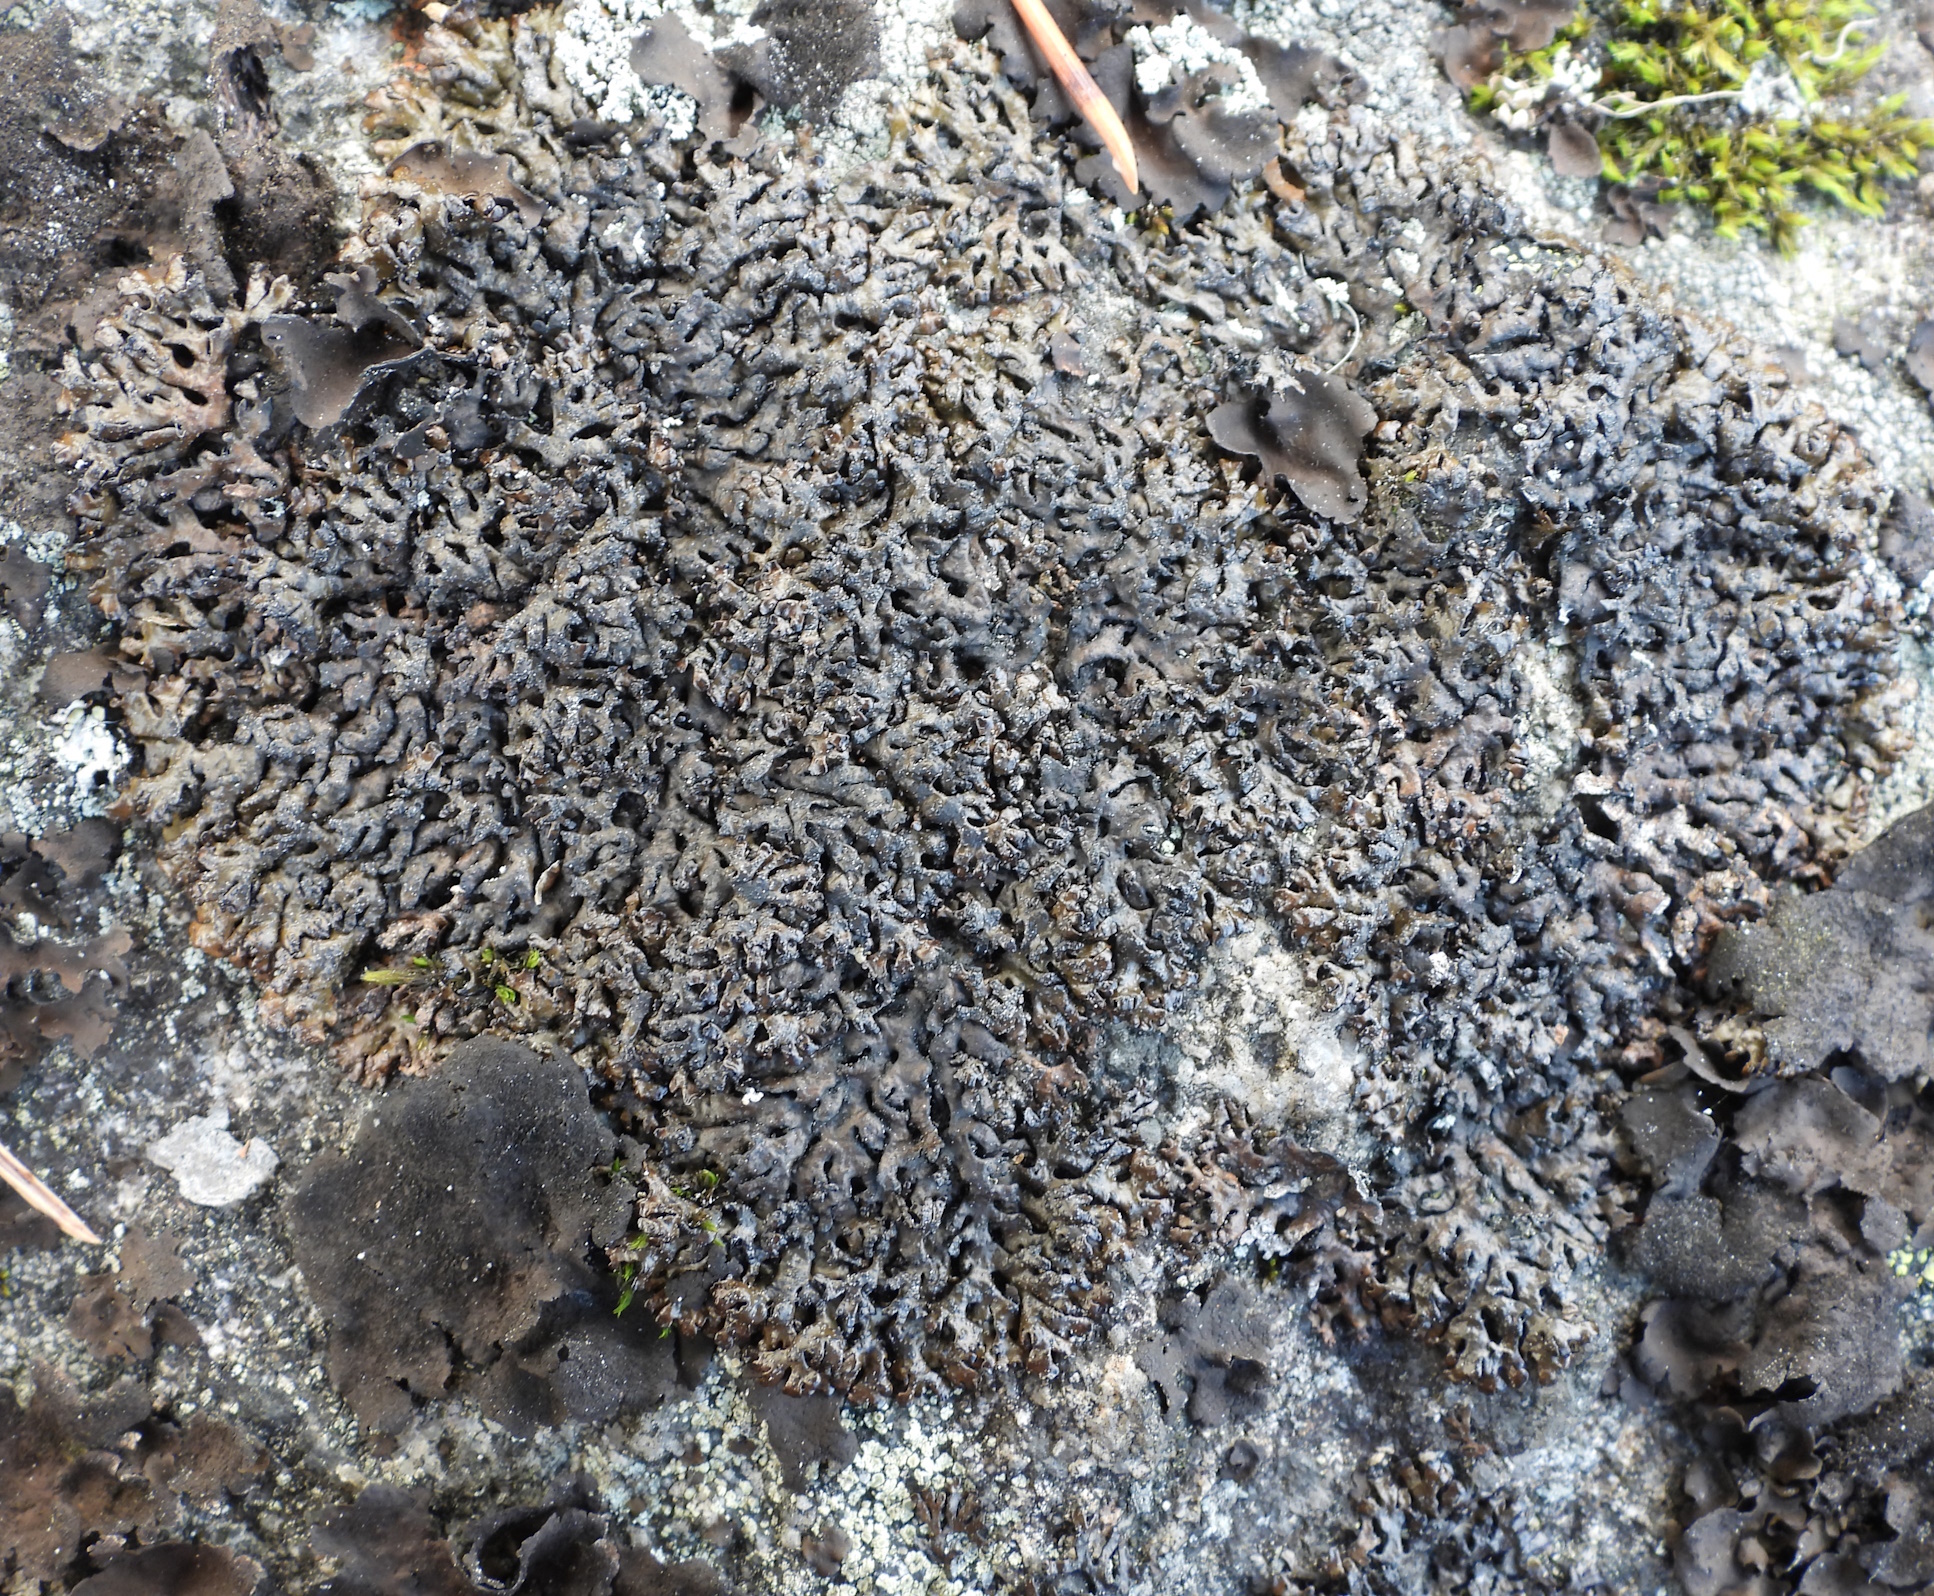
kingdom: Fungi
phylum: Ascomycota
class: Lecanoromycetes
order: Lecanorales
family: Parmeliaceae
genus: Melanelia
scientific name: Melanelia stygia
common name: Alpine camouflage lichen
